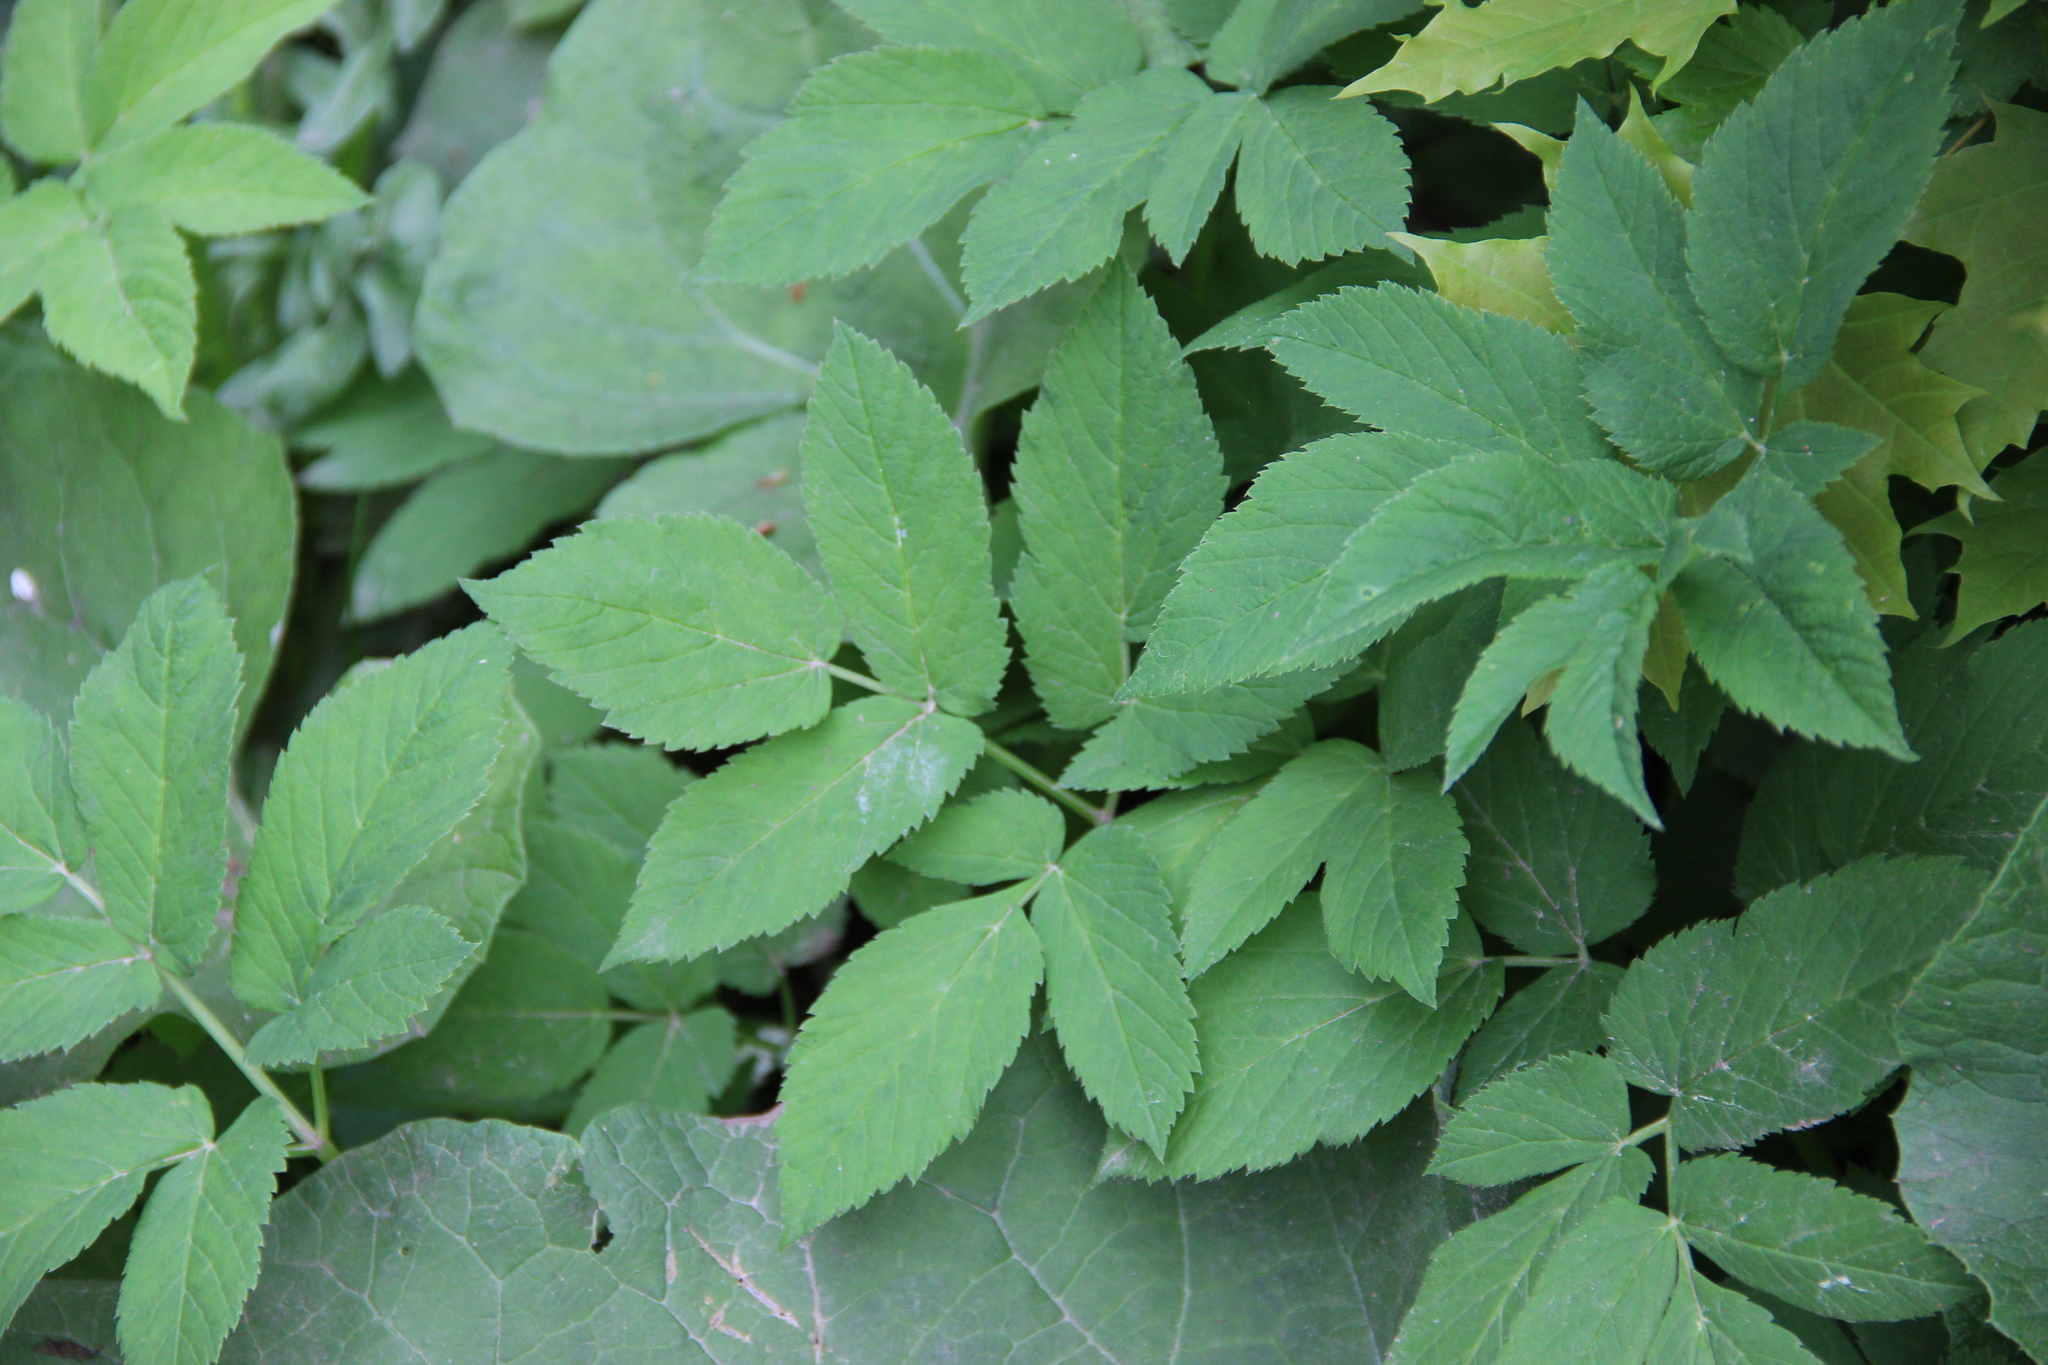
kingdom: Plantae
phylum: Tracheophyta
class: Magnoliopsida
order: Apiales
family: Apiaceae
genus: Aegopodium
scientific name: Aegopodium podagraria
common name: Ground-elder
